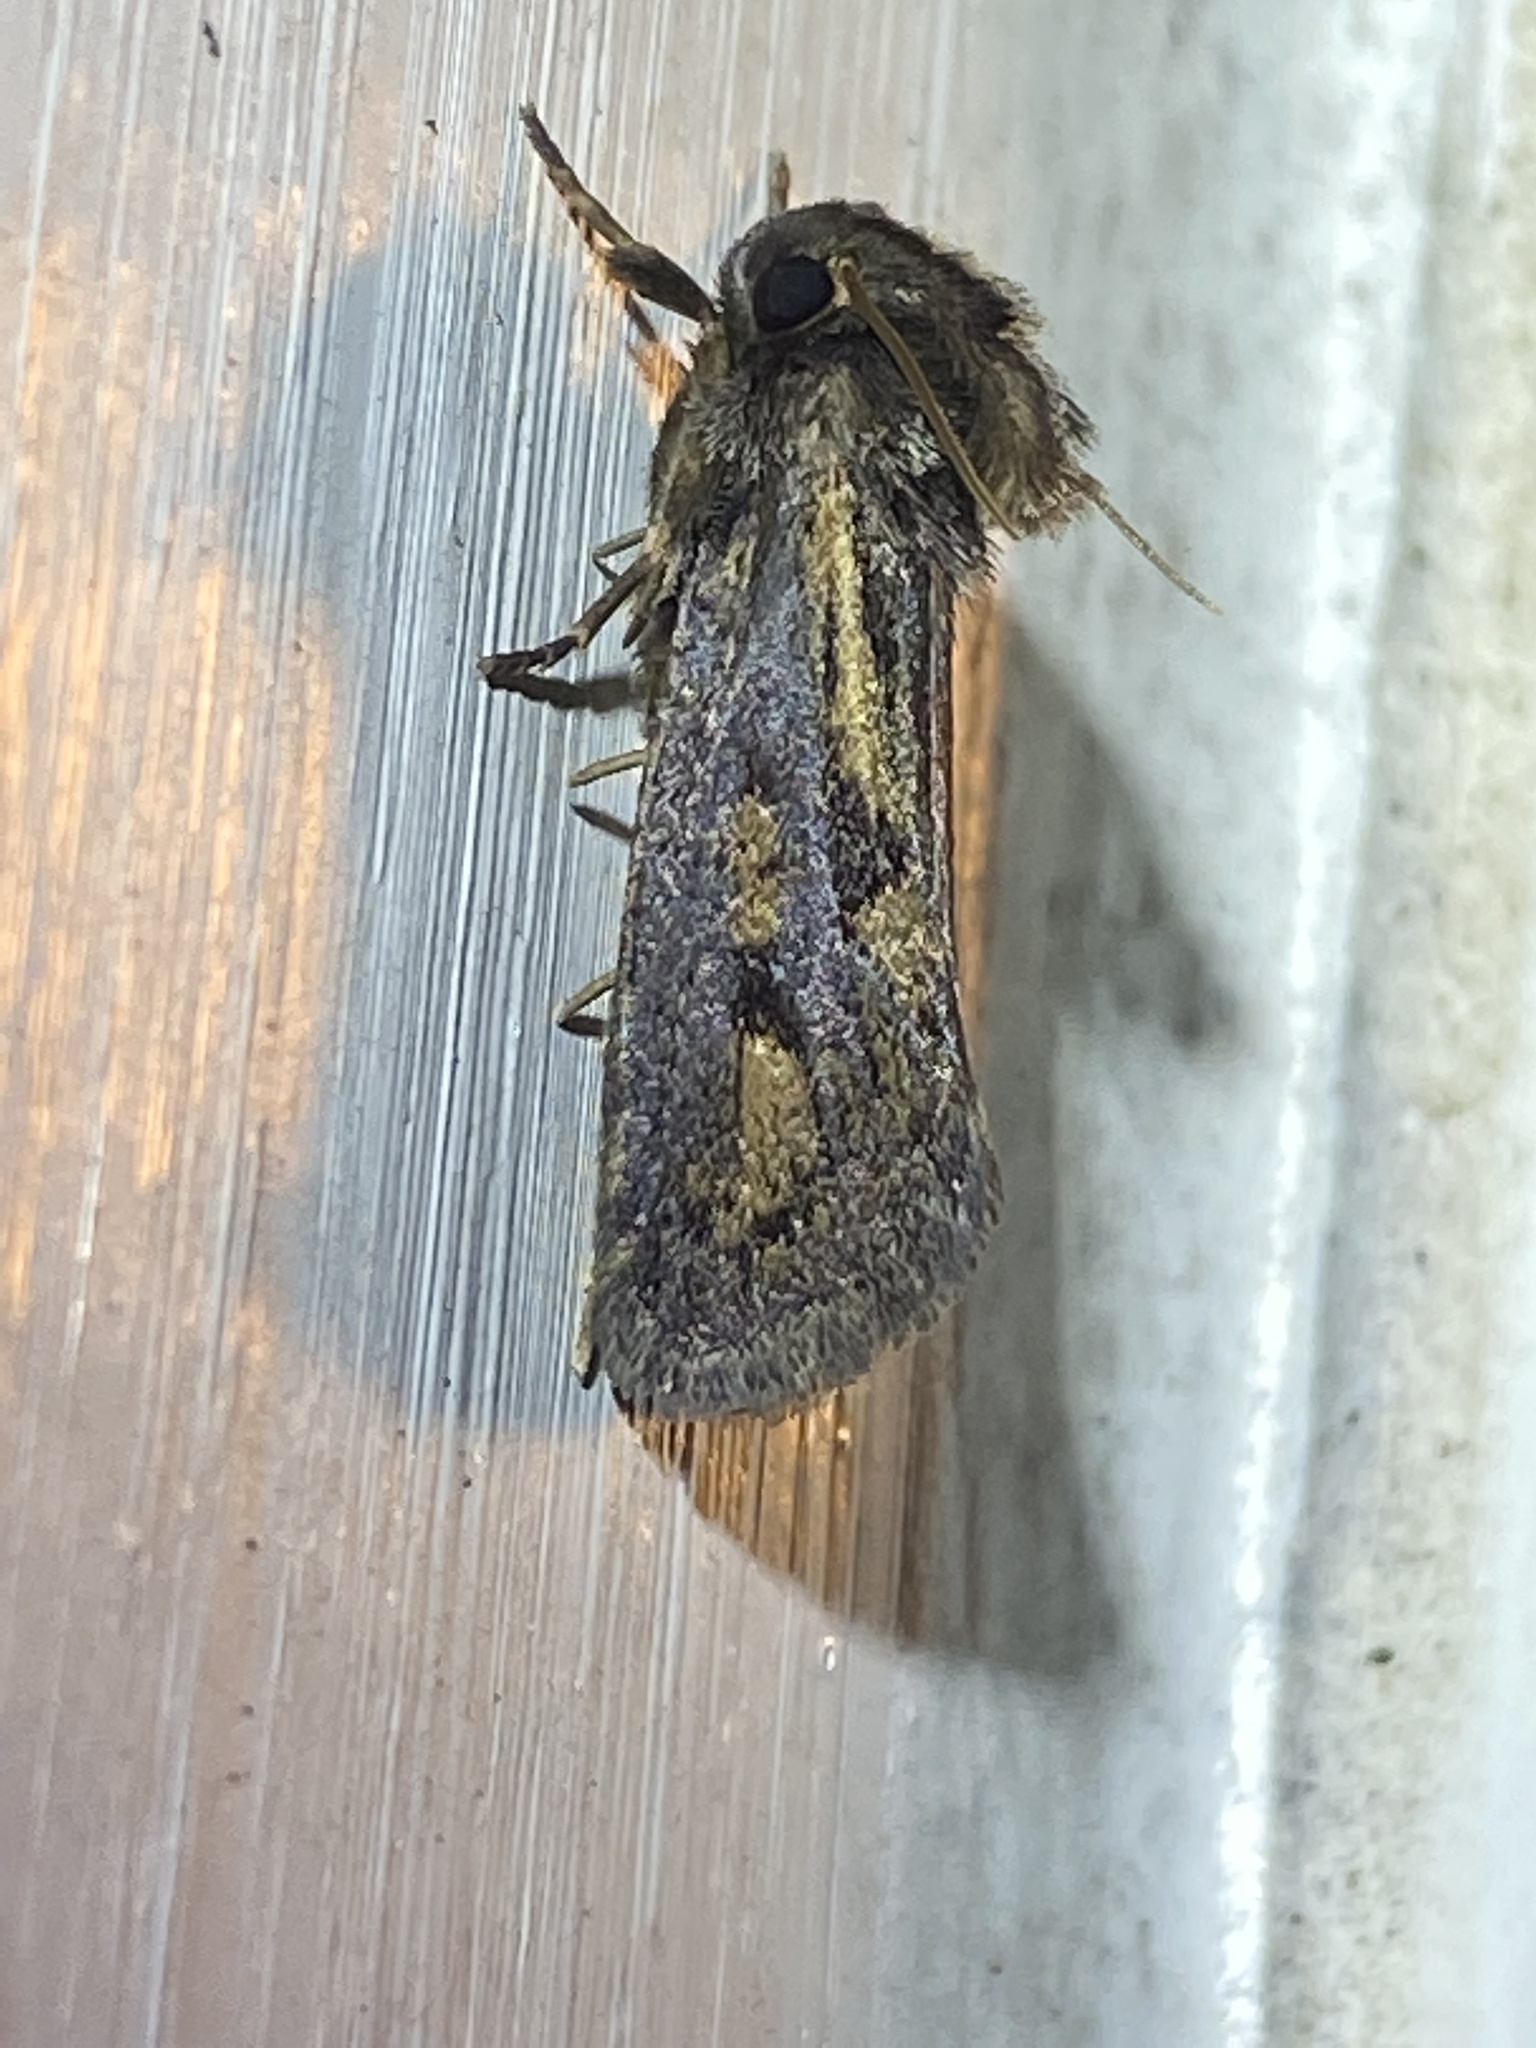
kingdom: Animalia
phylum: Arthropoda
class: Insecta
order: Lepidoptera
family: Tineidae
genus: Acrolophus
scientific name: Acrolophus popeanella
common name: Clemens' grass tubeworm moth
